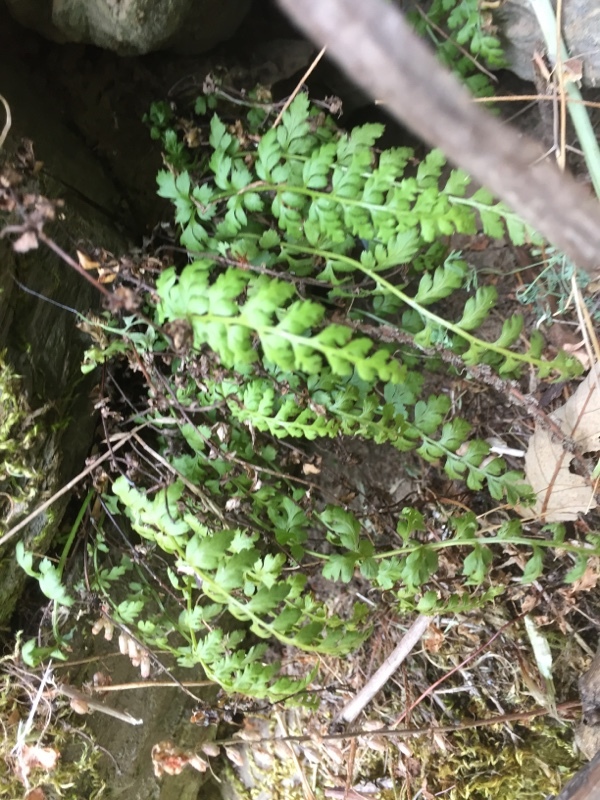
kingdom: Plantae
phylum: Tracheophyta
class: Polypodiopsida
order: Polypodiales
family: Aspleniaceae
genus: Asplenium
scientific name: Asplenium obovatum
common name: Lanceolate spleenwort
